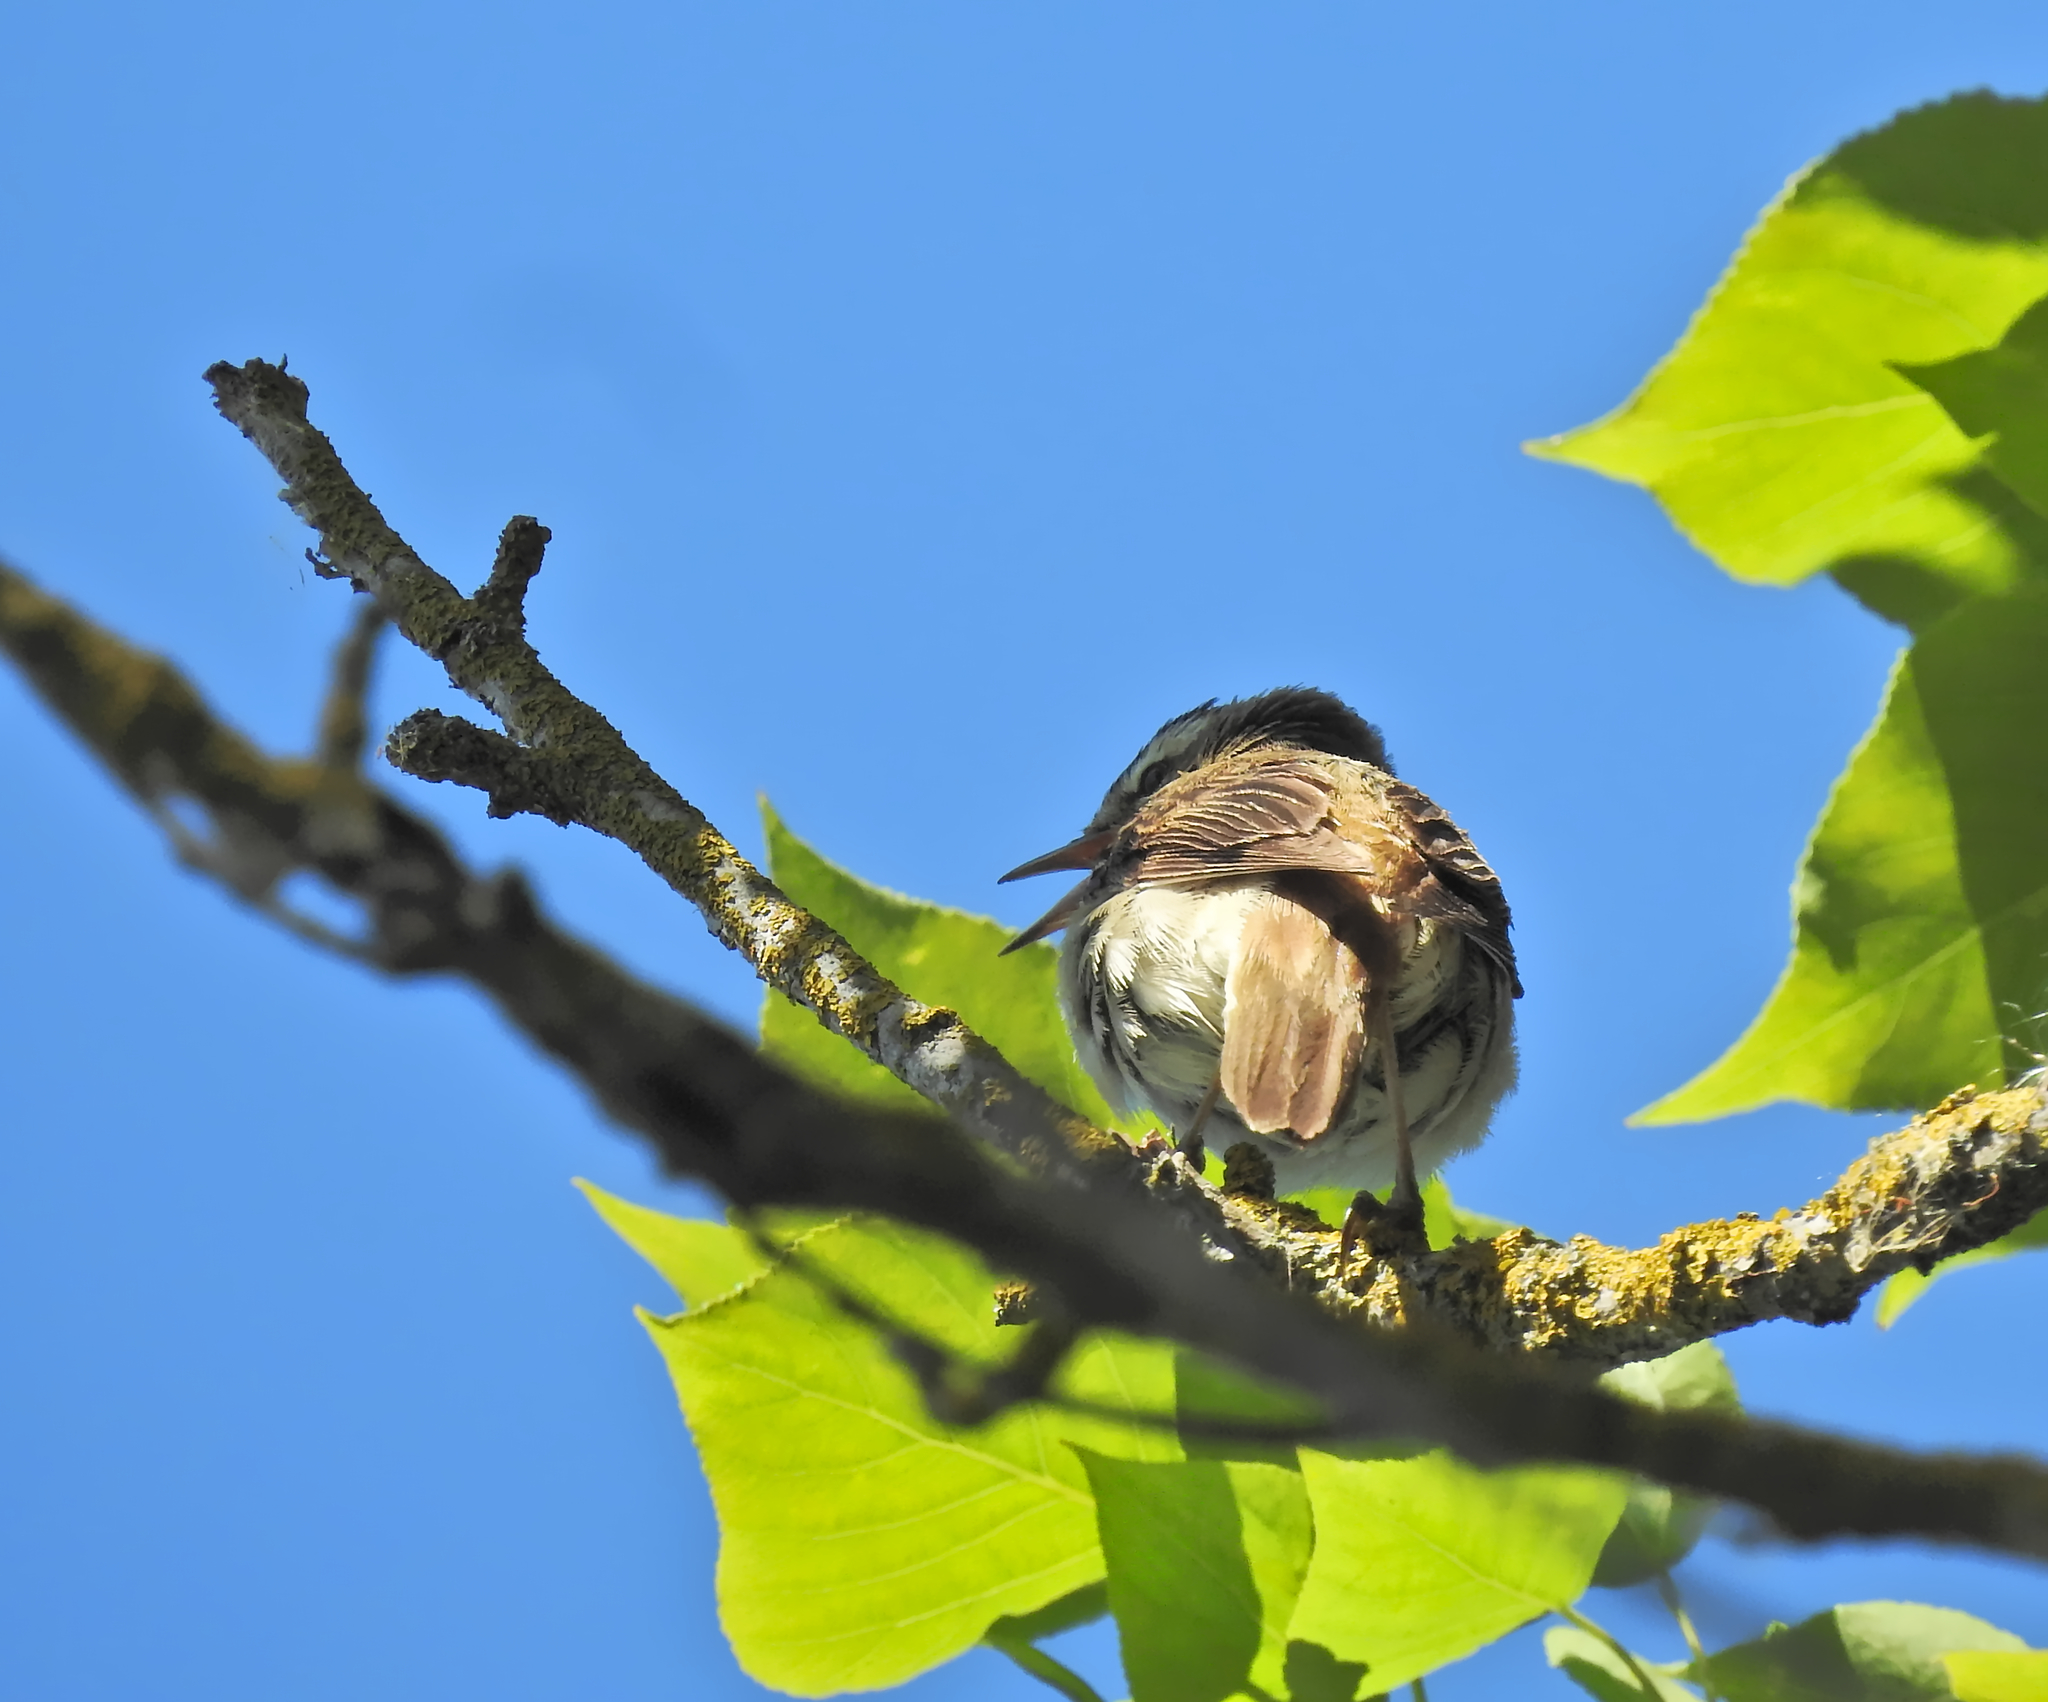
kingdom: Animalia
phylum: Chordata
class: Aves
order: Passeriformes
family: Acrocephalidae
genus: Acrocephalus
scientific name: Acrocephalus schoenobaenus
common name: Sedge warbler
